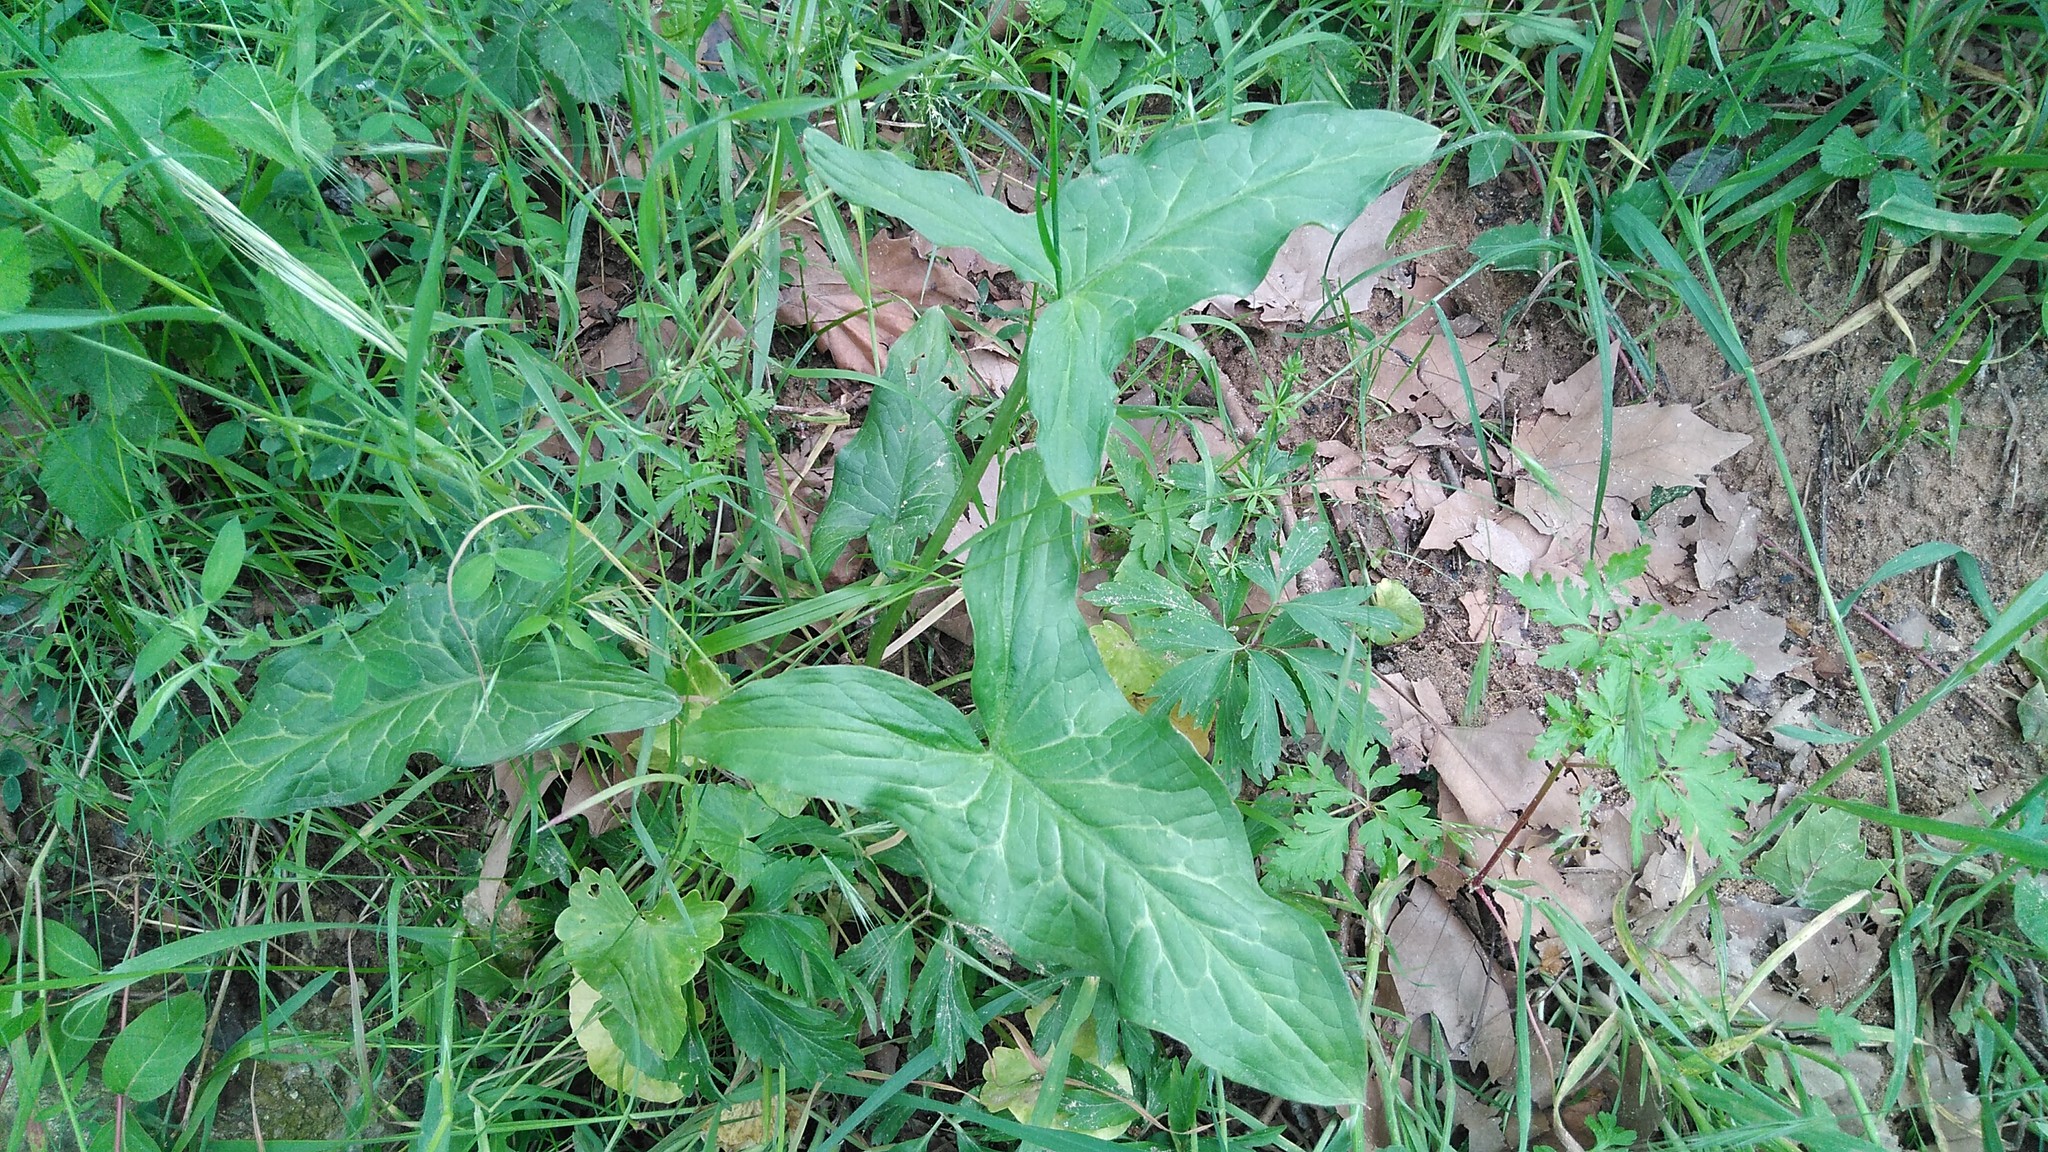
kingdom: Plantae
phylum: Tracheophyta
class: Liliopsida
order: Alismatales
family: Araceae
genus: Arum
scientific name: Arum italicum
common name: Italian lords-and-ladies
